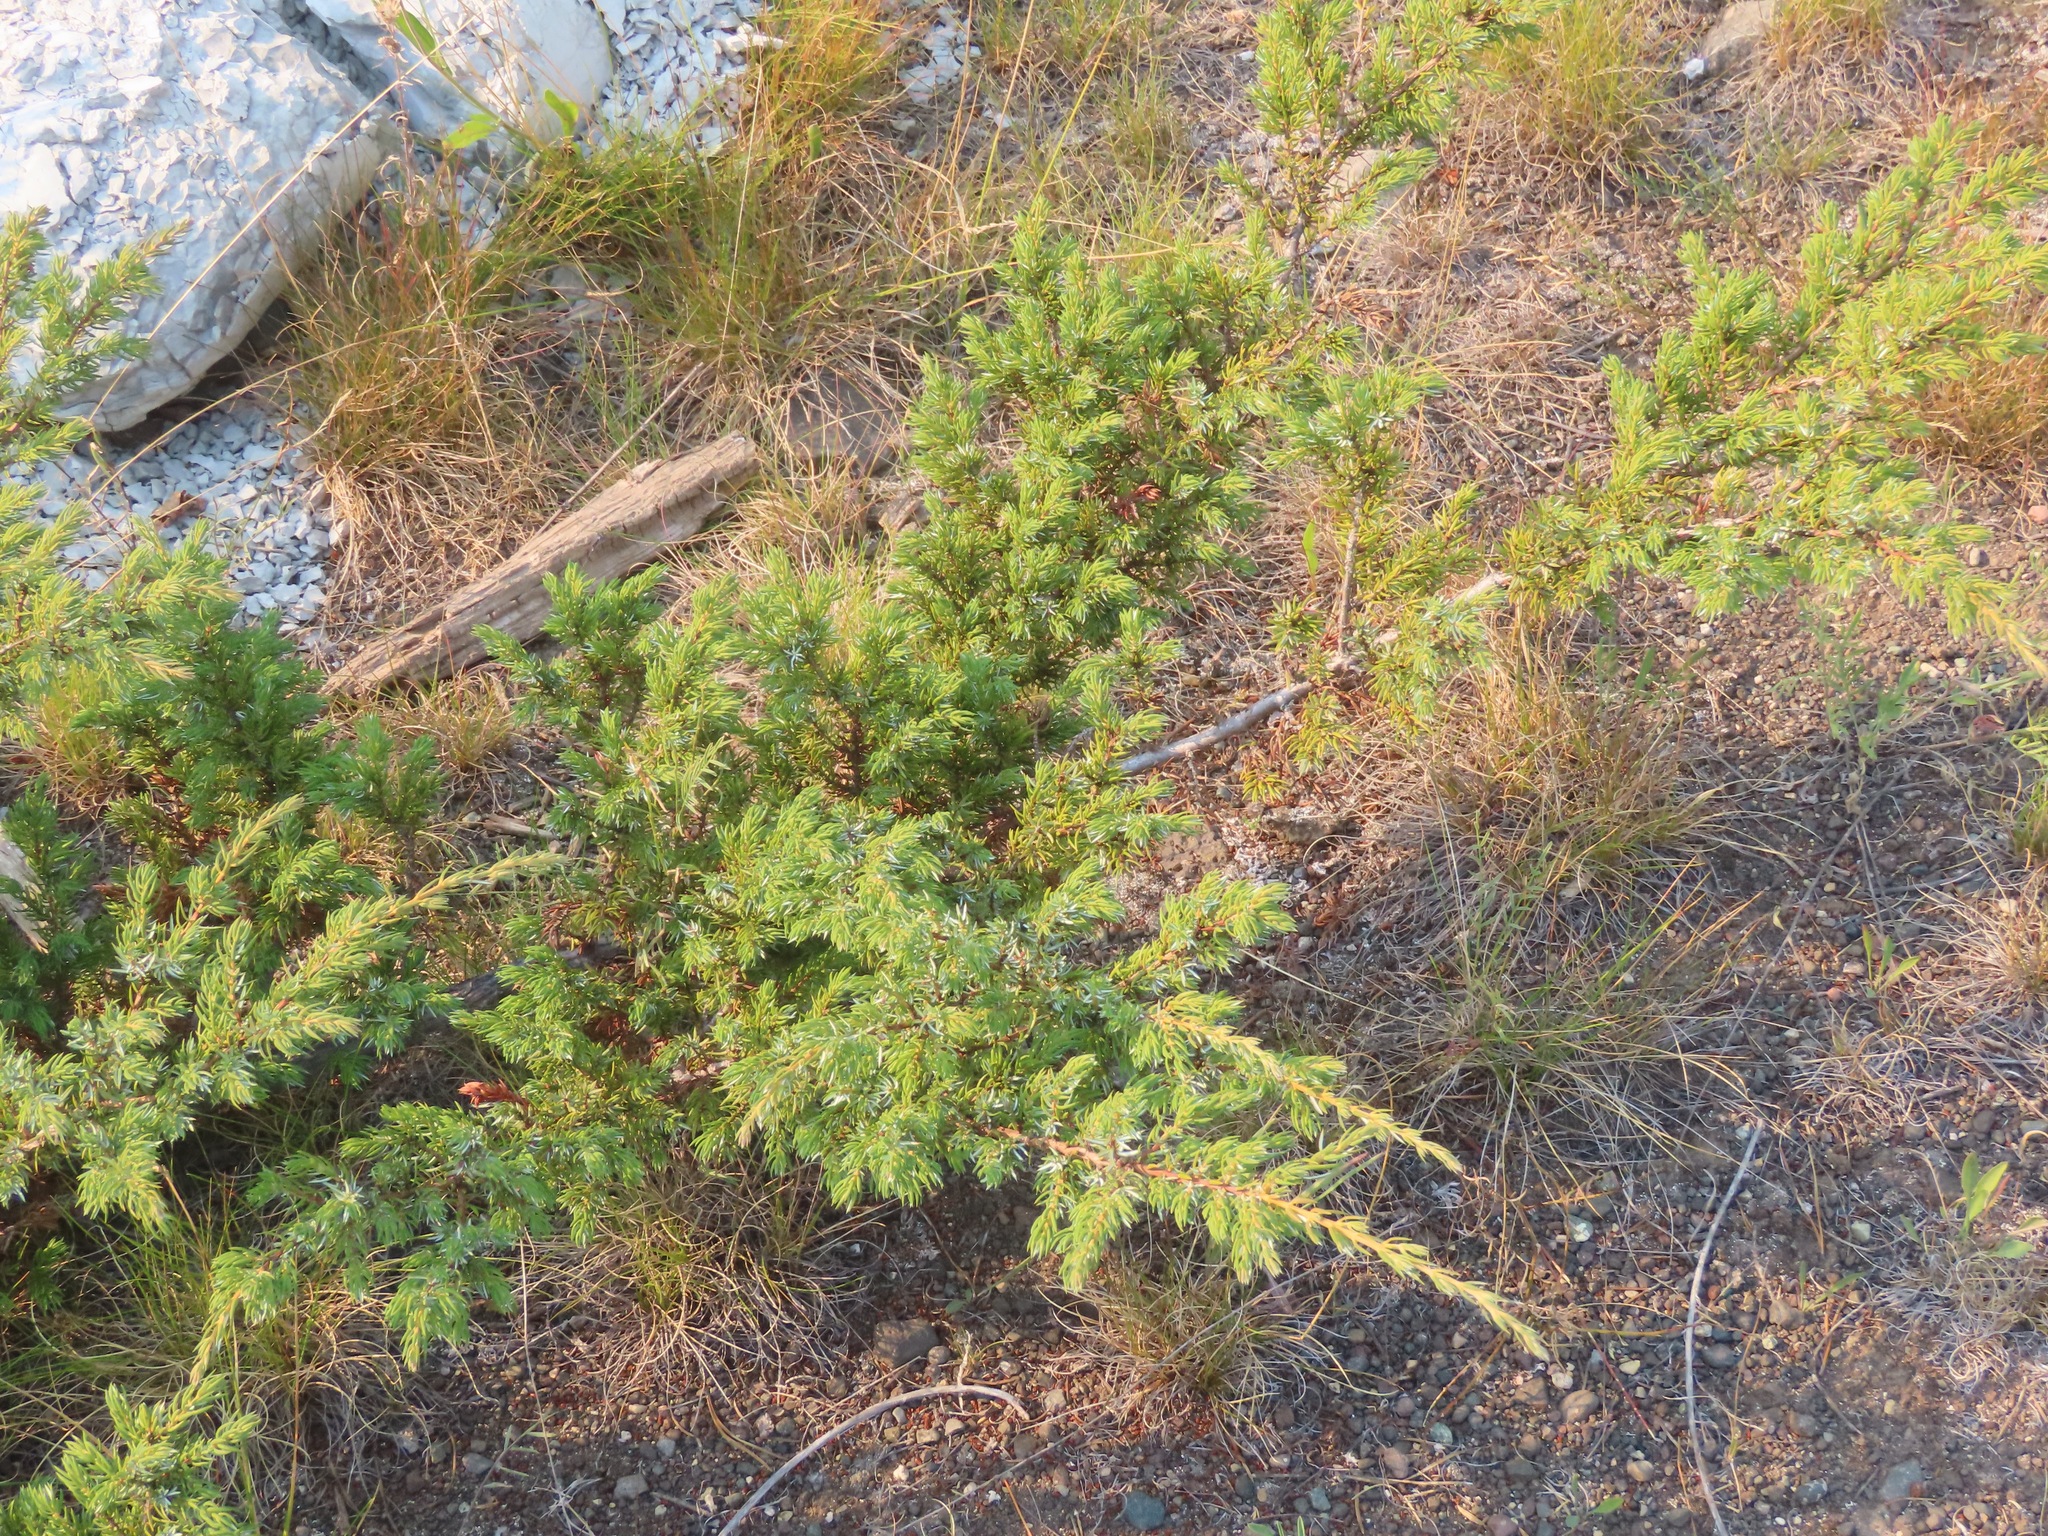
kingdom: Plantae
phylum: Tracheophyta
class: Pinopsida
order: Pinales
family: Cupressaceae
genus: Juniperus
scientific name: Juniperus communis
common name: Common juniper
